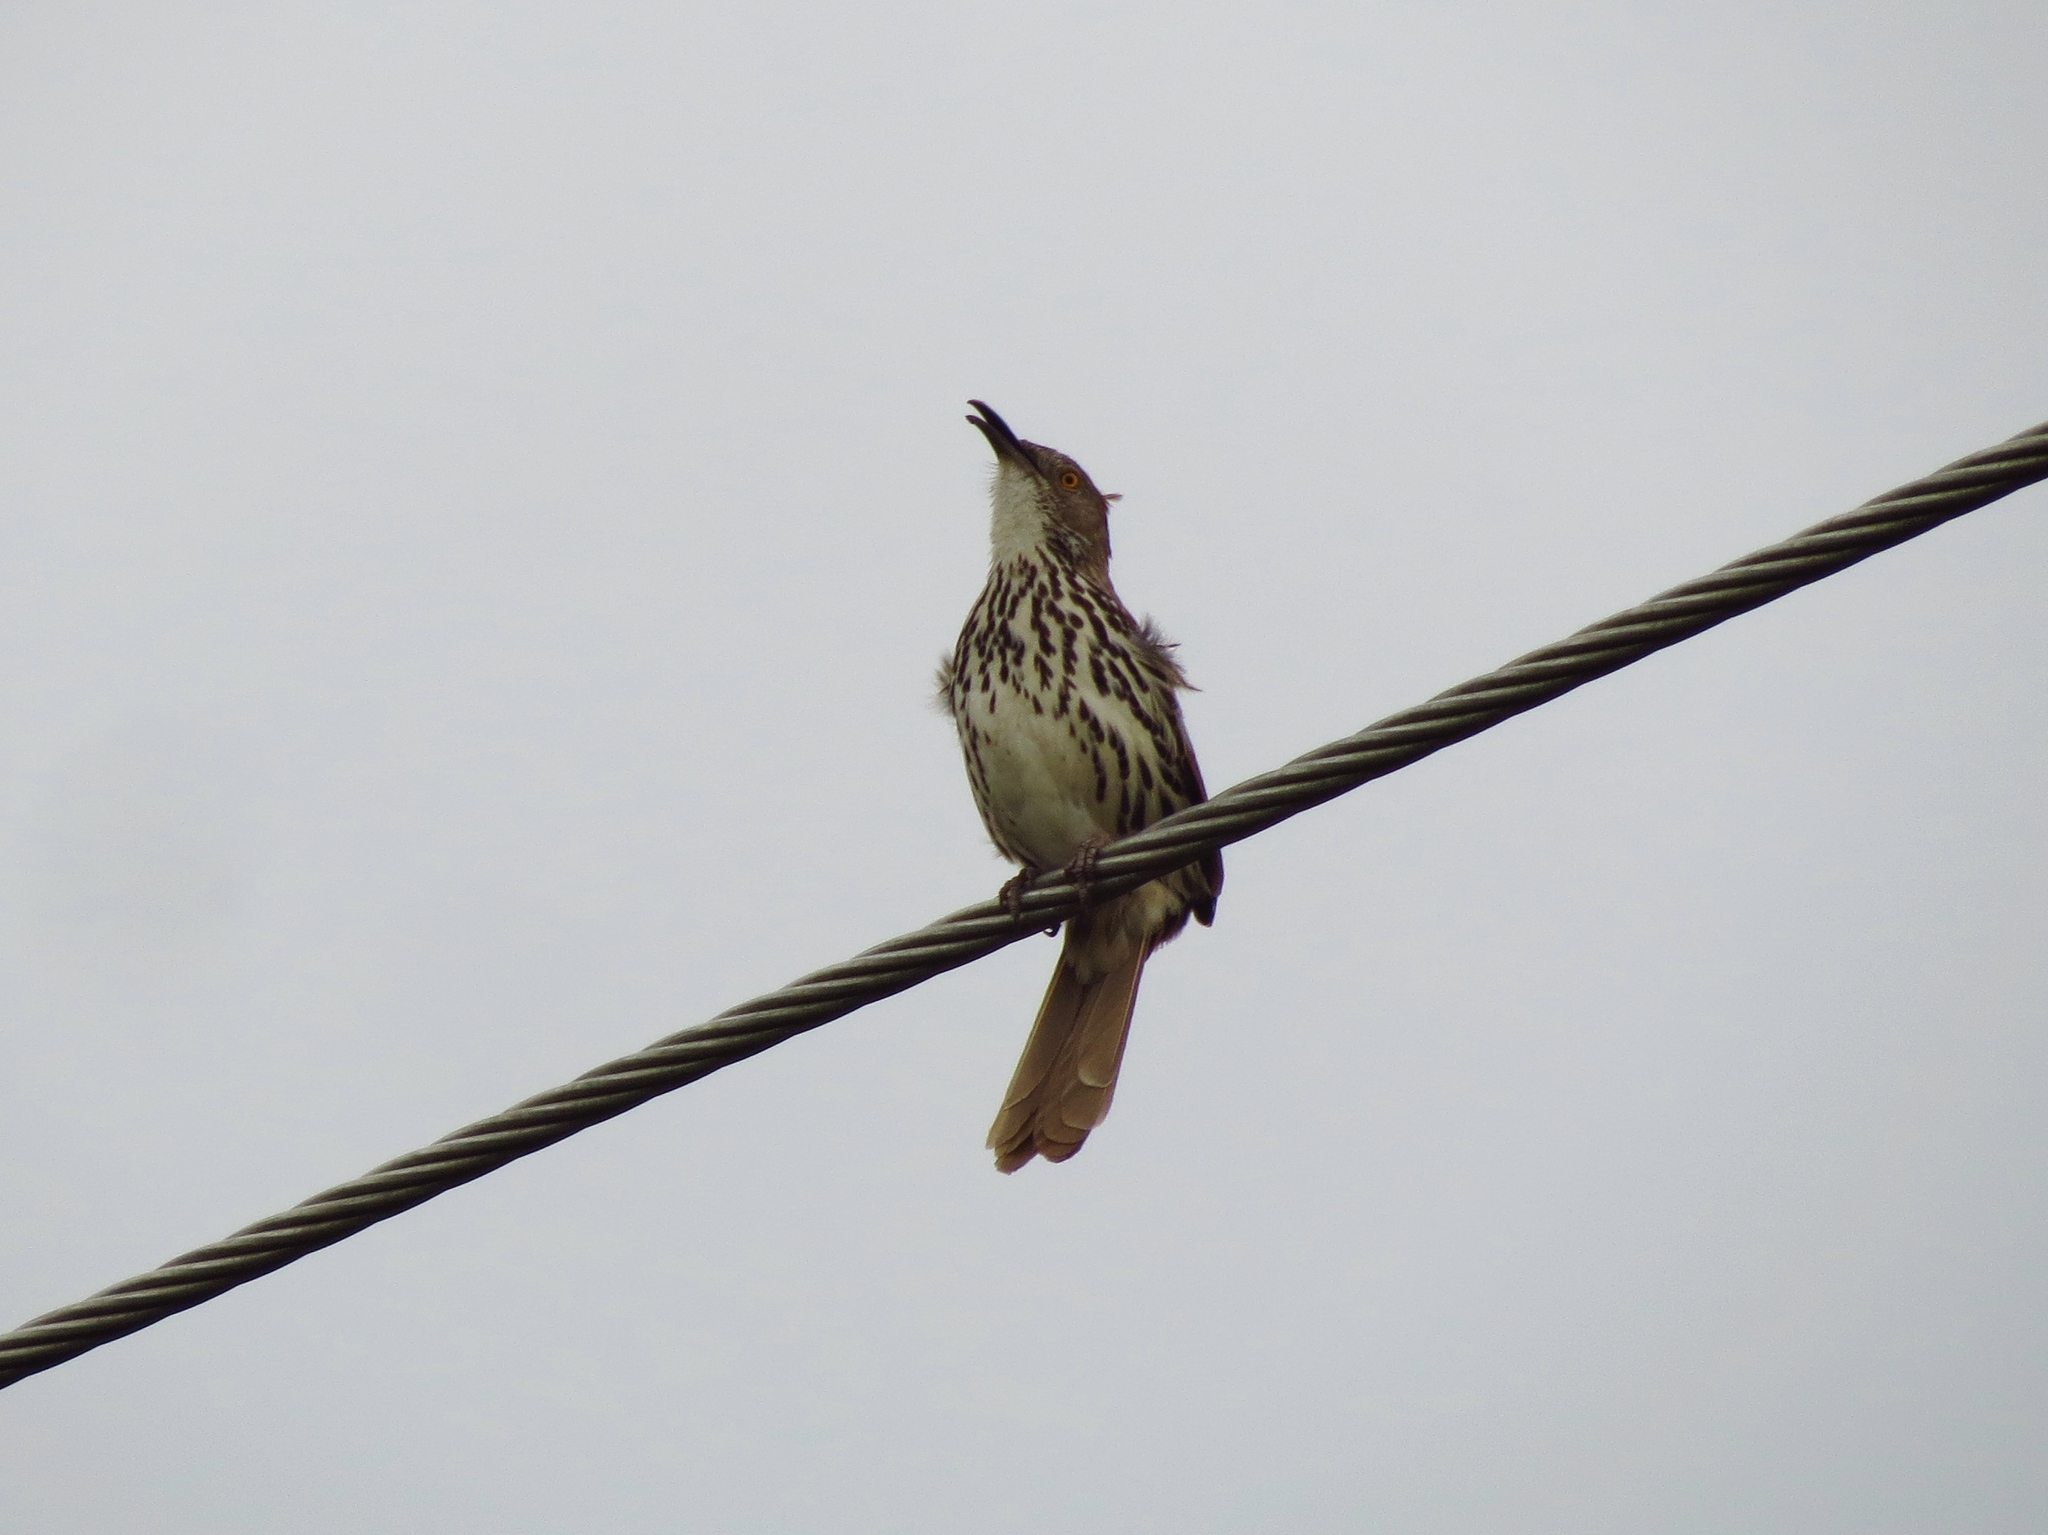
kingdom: Animalia
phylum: Chordata
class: Aves
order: Passeriformes
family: Mimidae
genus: Toxostoma
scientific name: Toxostoma longirostre
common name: Long-billed thrasher
